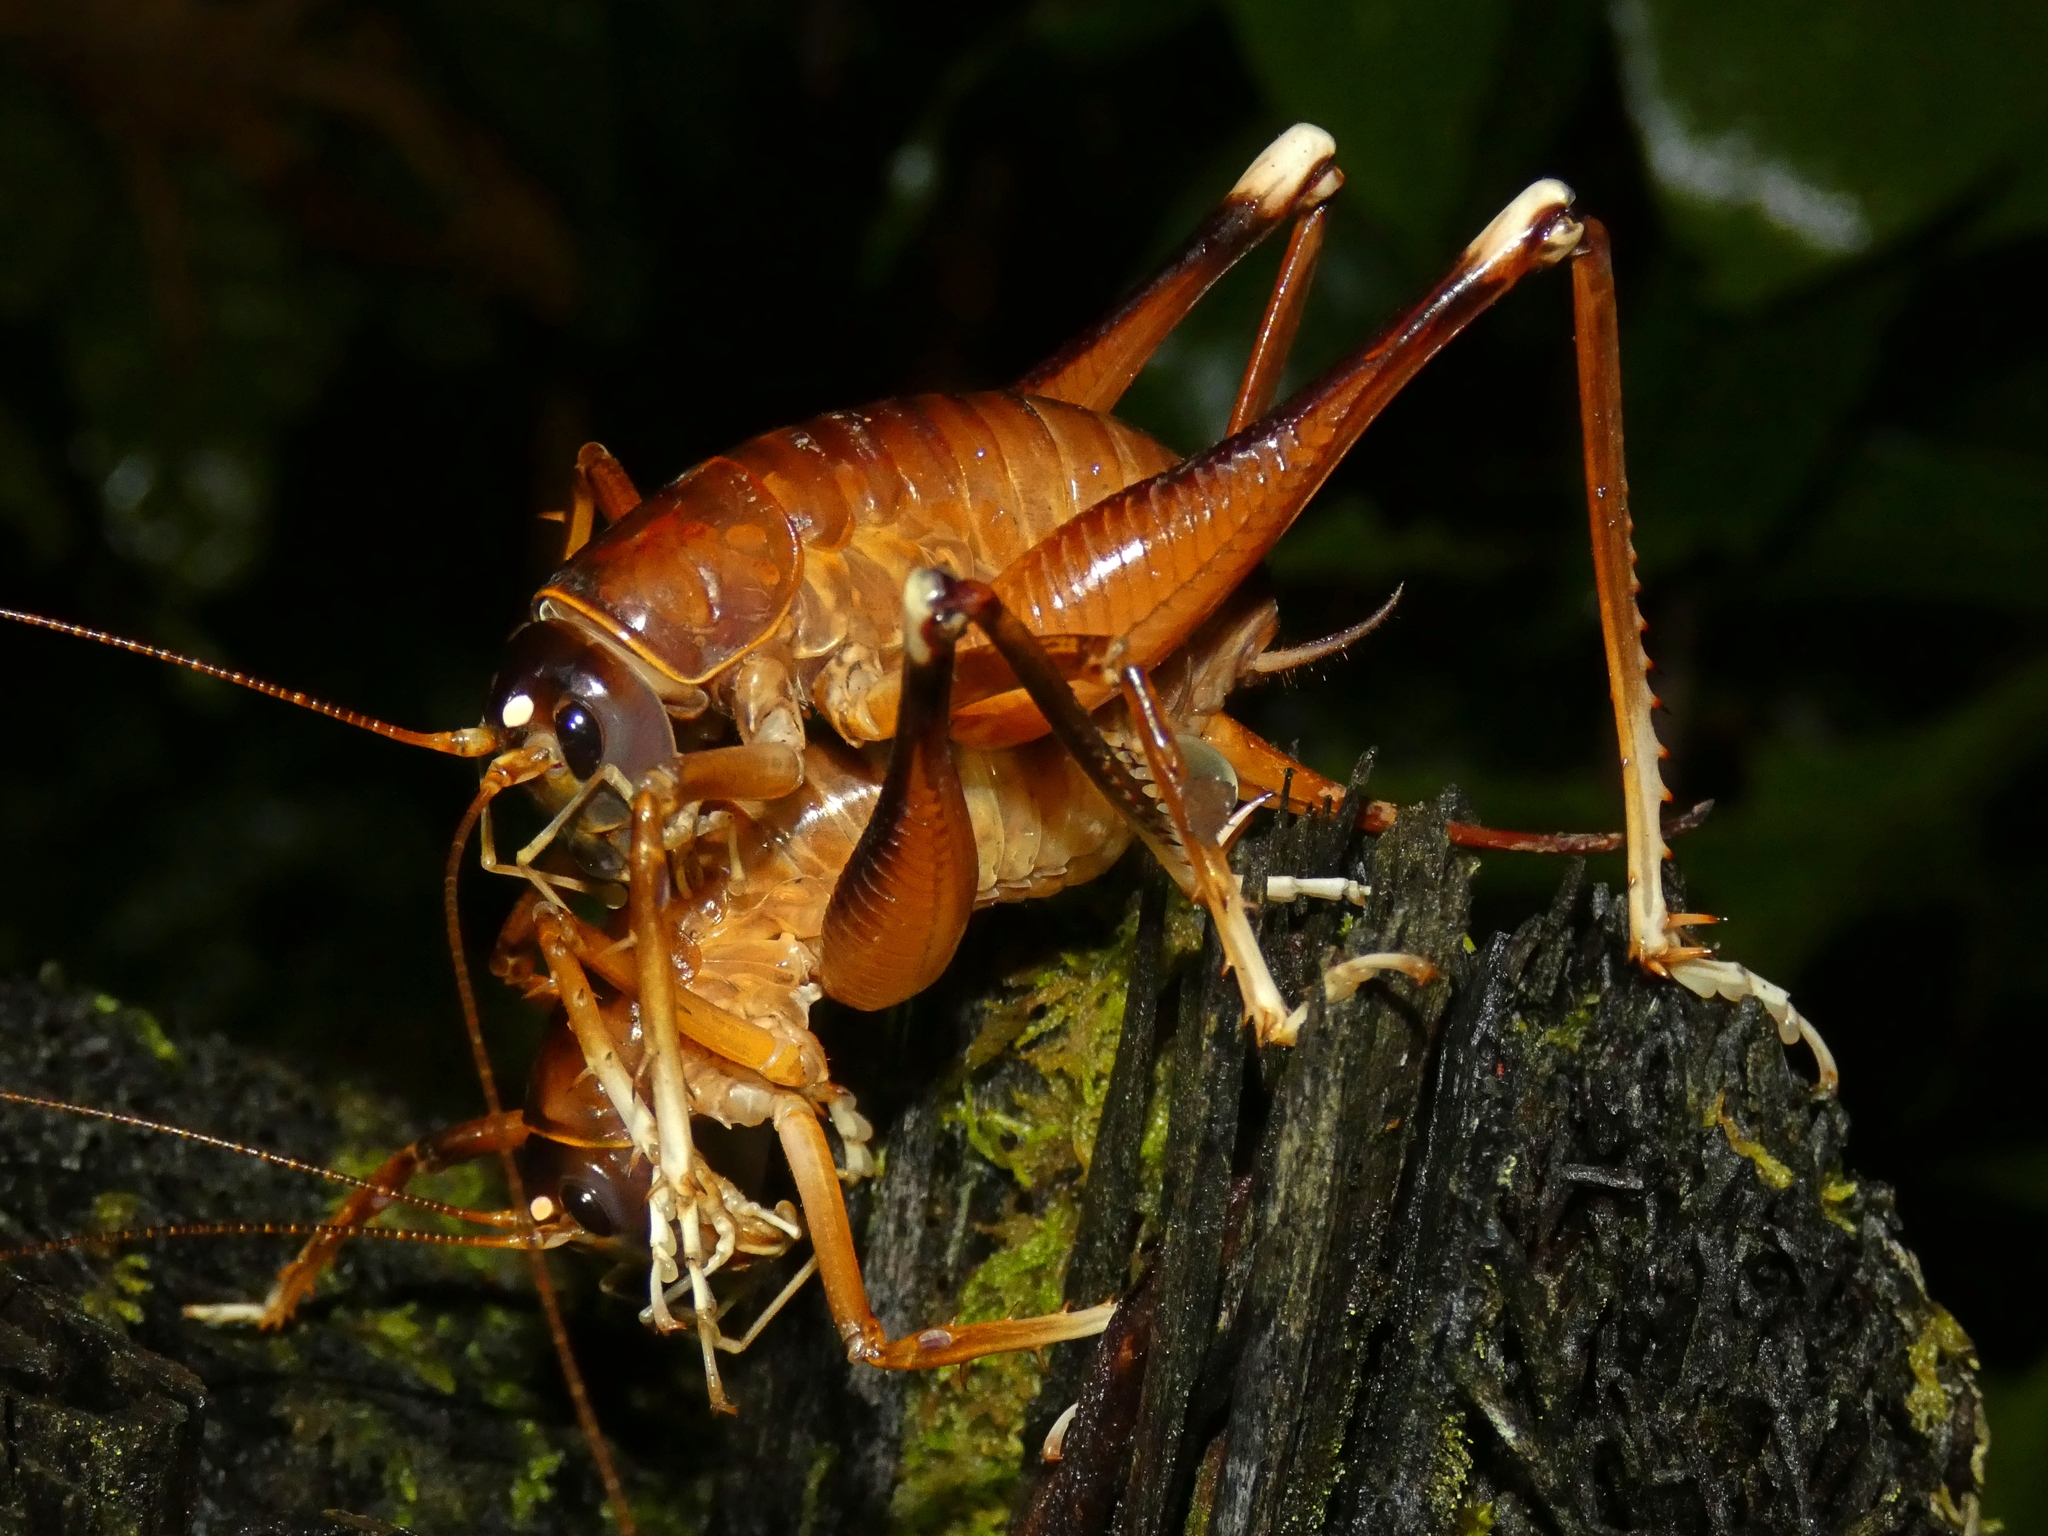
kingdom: Animalia
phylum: Arthropoda
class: Insecta
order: Orthoptera
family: Anostostomatidae
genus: Penalva
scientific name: Penalva flavocalceata
